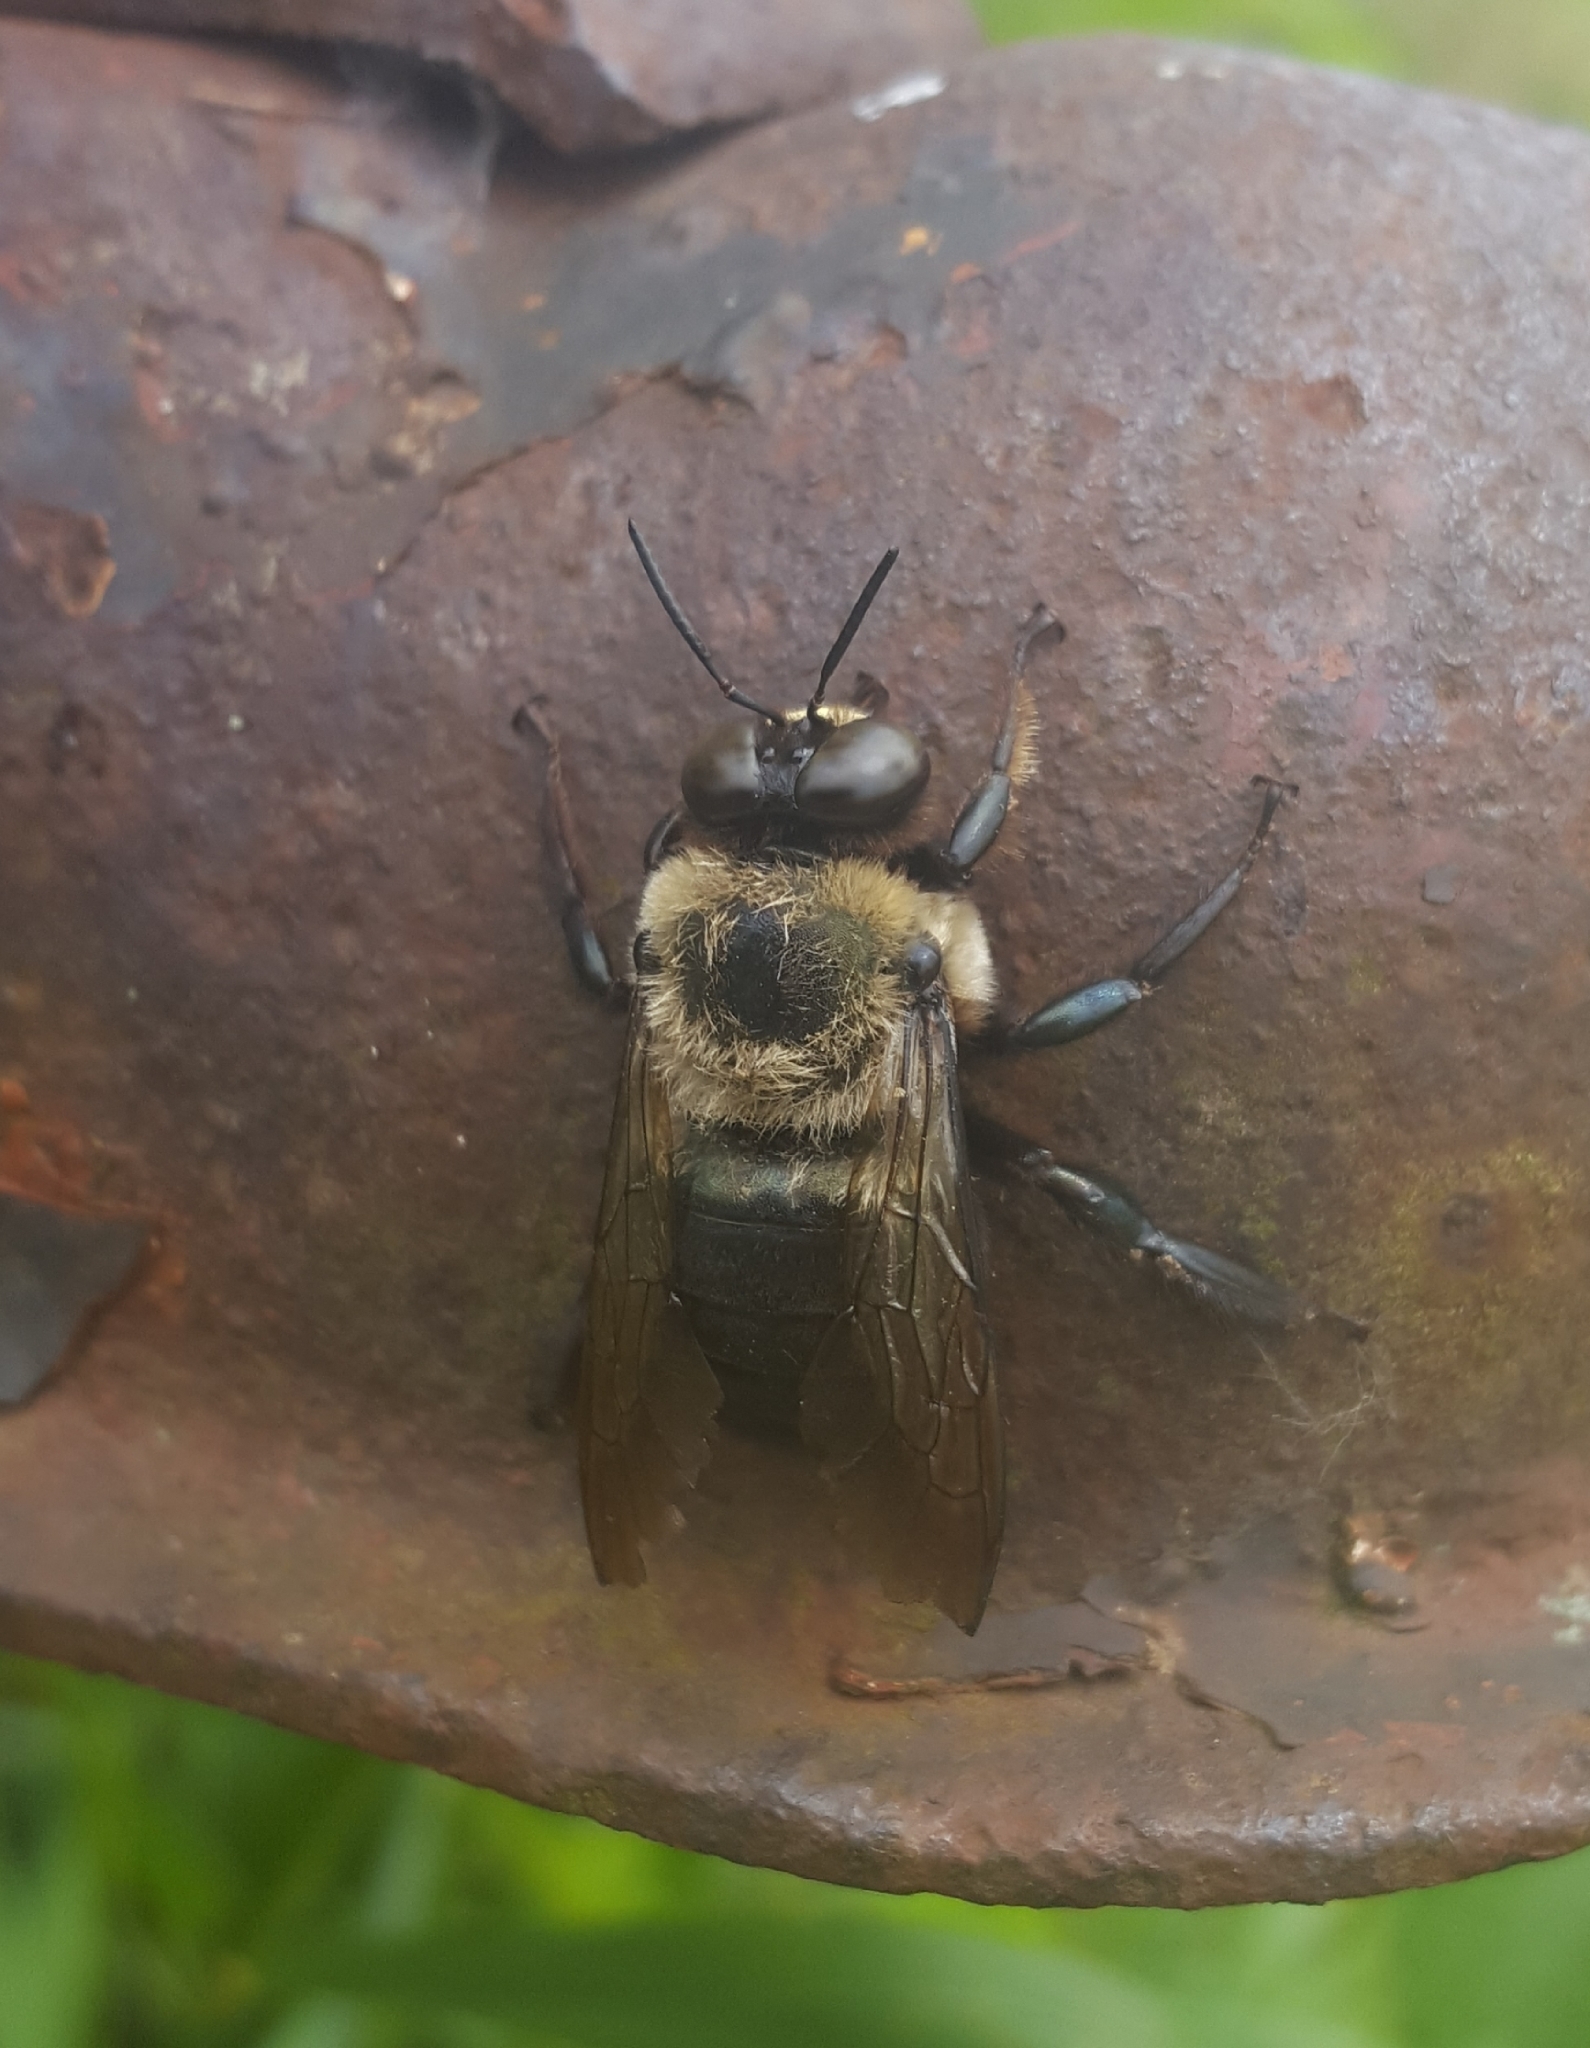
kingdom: Animalia
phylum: Arthropoda
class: Insecta
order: Hymenoptera
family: Apidae
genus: Xylocopa
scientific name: Xylocopa virginica
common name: Carpenter bee
